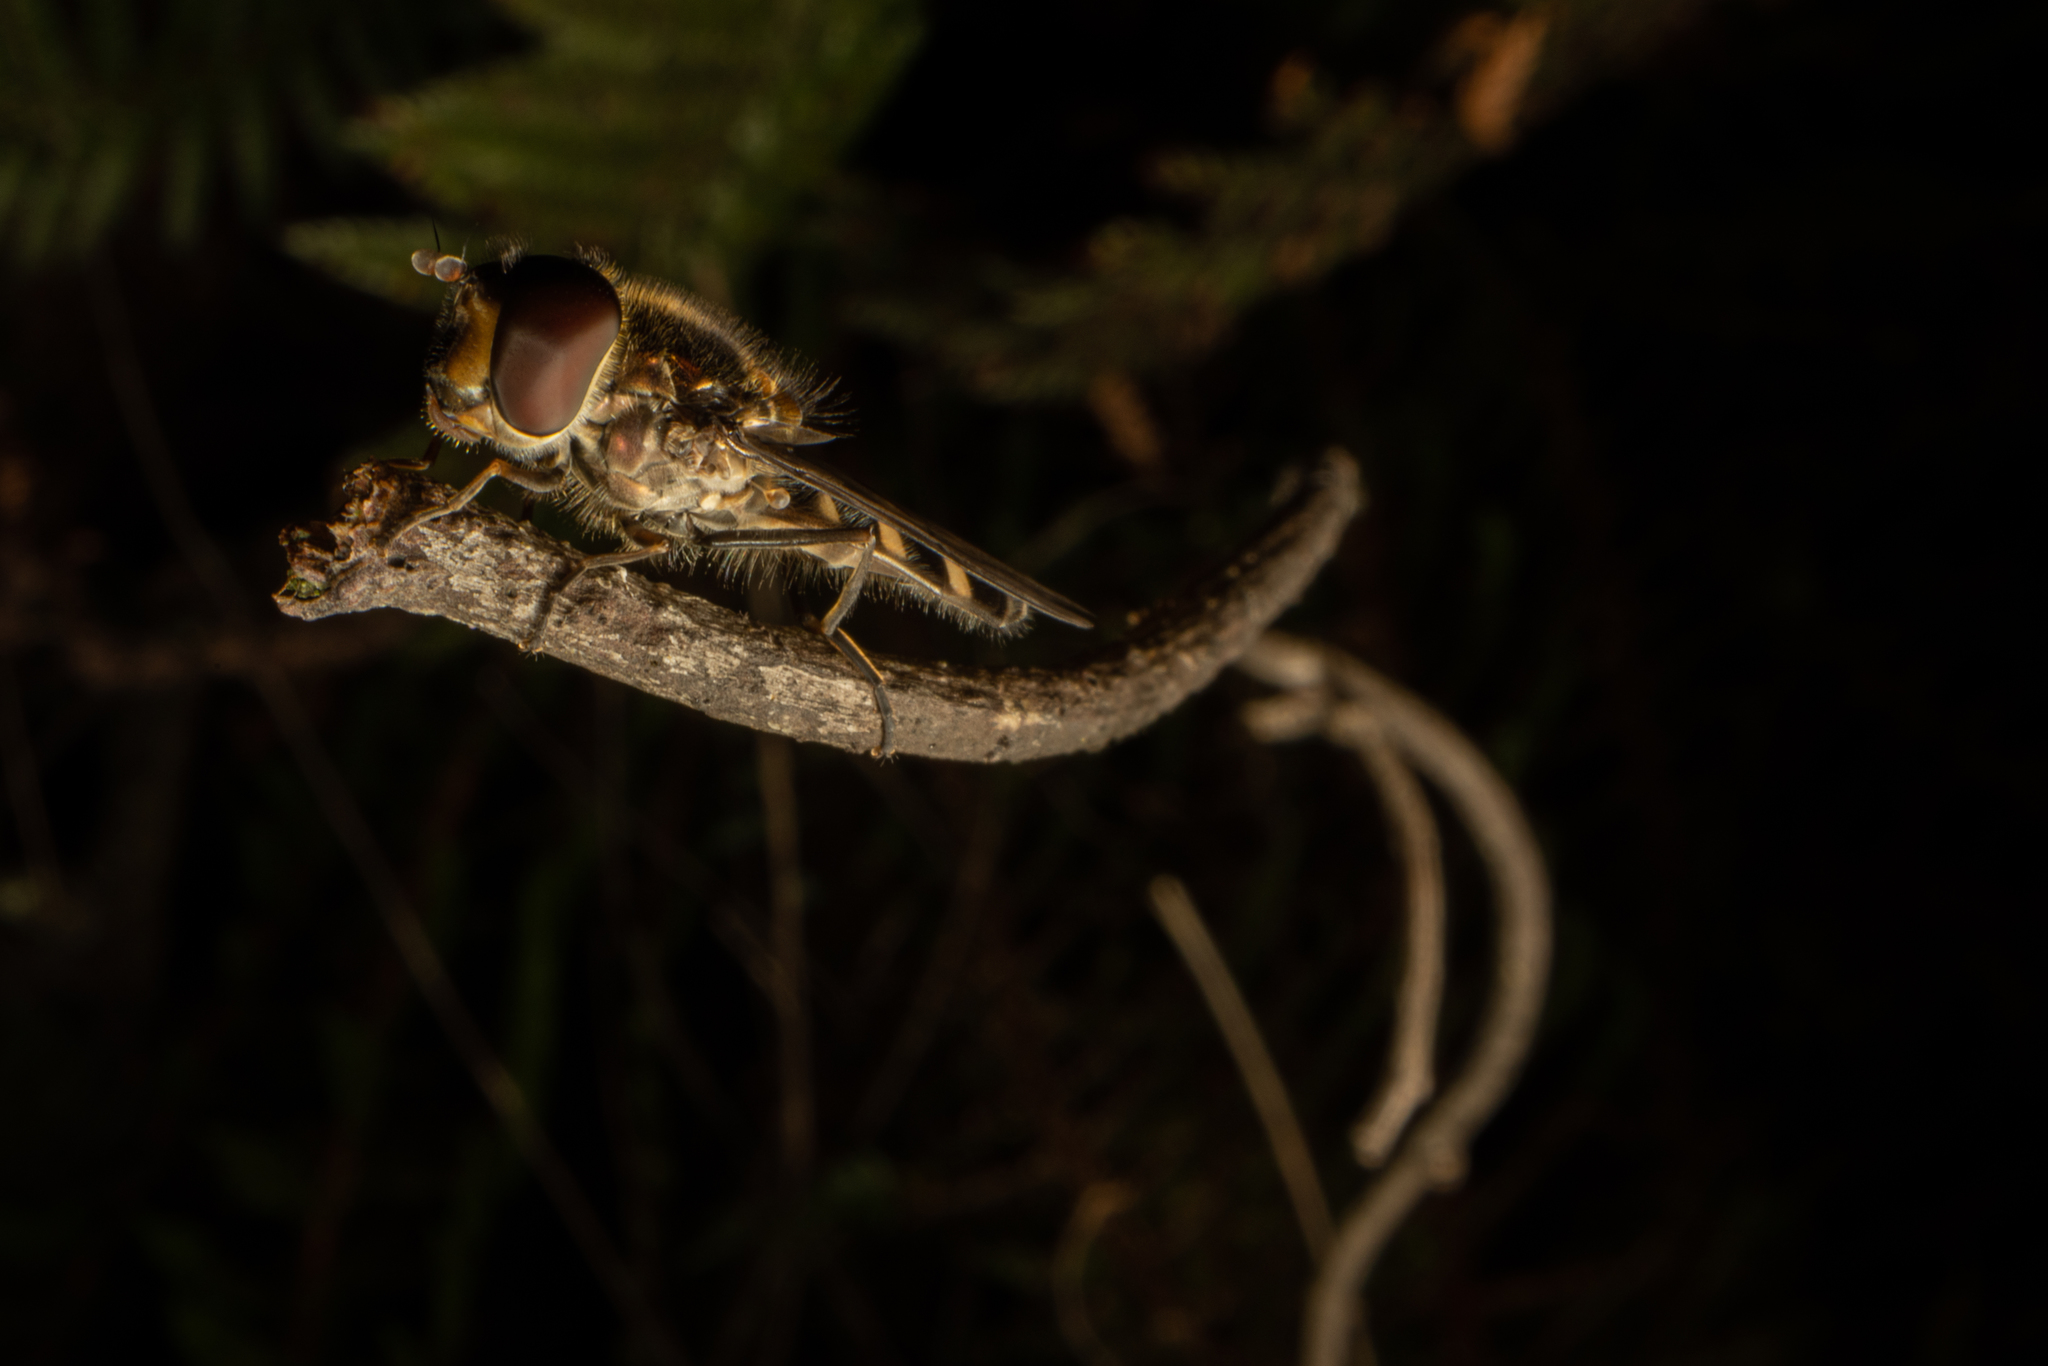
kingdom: Animalia
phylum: Arthropoda
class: Insecta
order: Diptera
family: Syrphidae
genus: Melangyna
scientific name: Melangyna novaezelandiae
